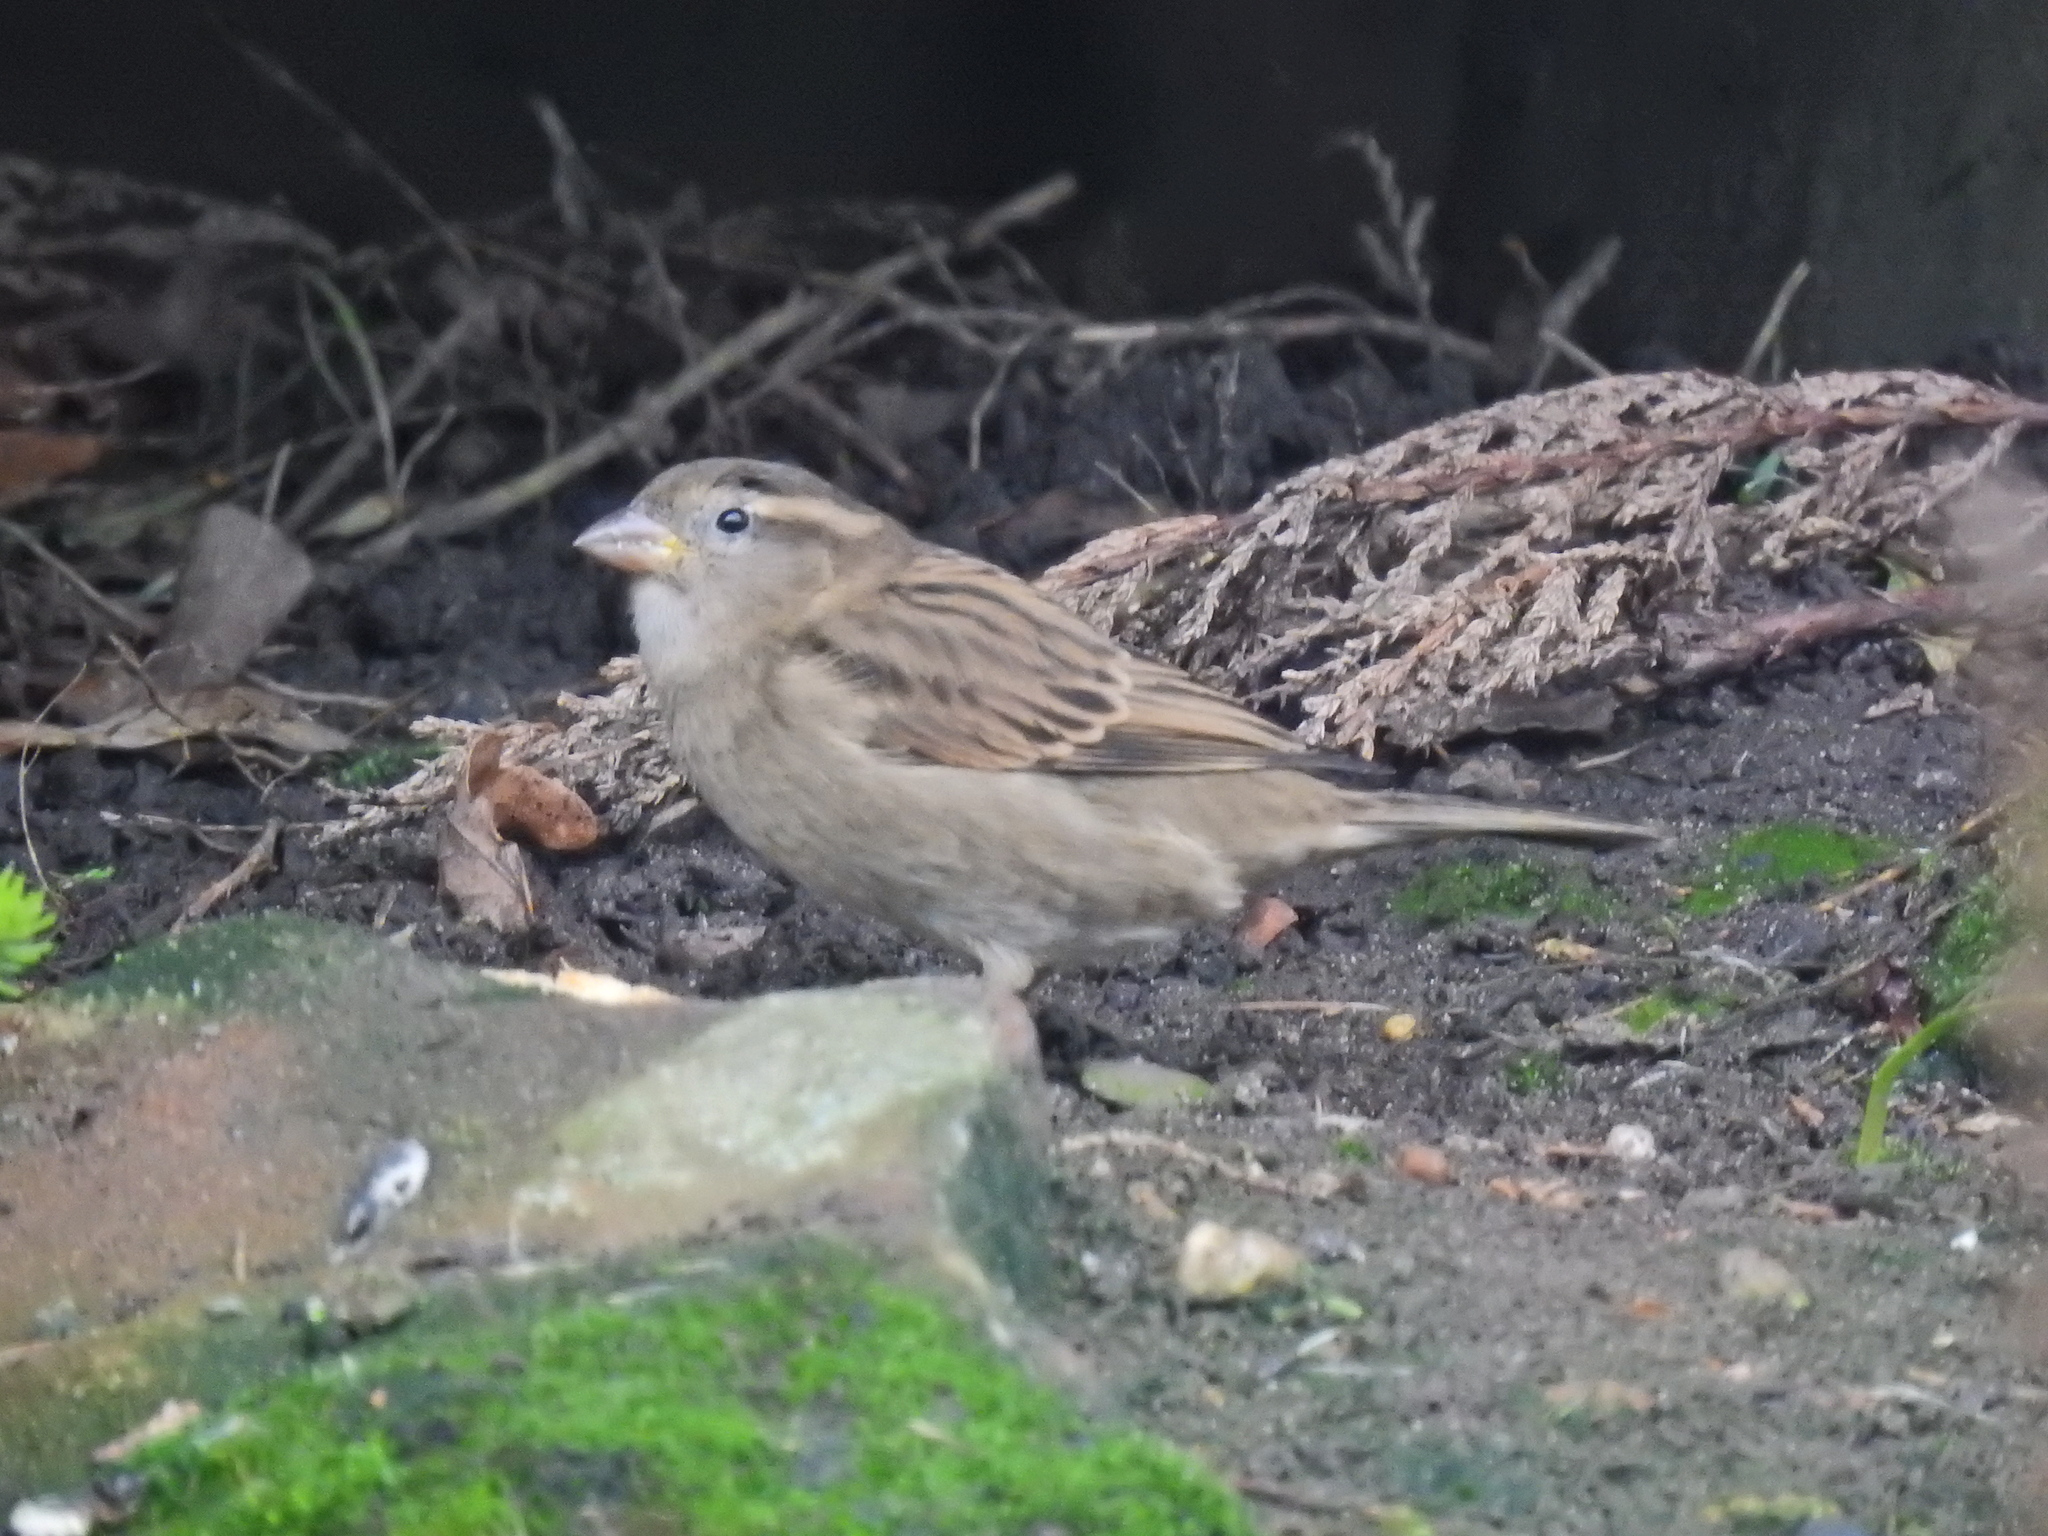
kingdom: Animalia
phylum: Chordata
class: Aves
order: Passeriformes
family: Passeridae
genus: Passer
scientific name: Passer domesticus
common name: House sparrow
